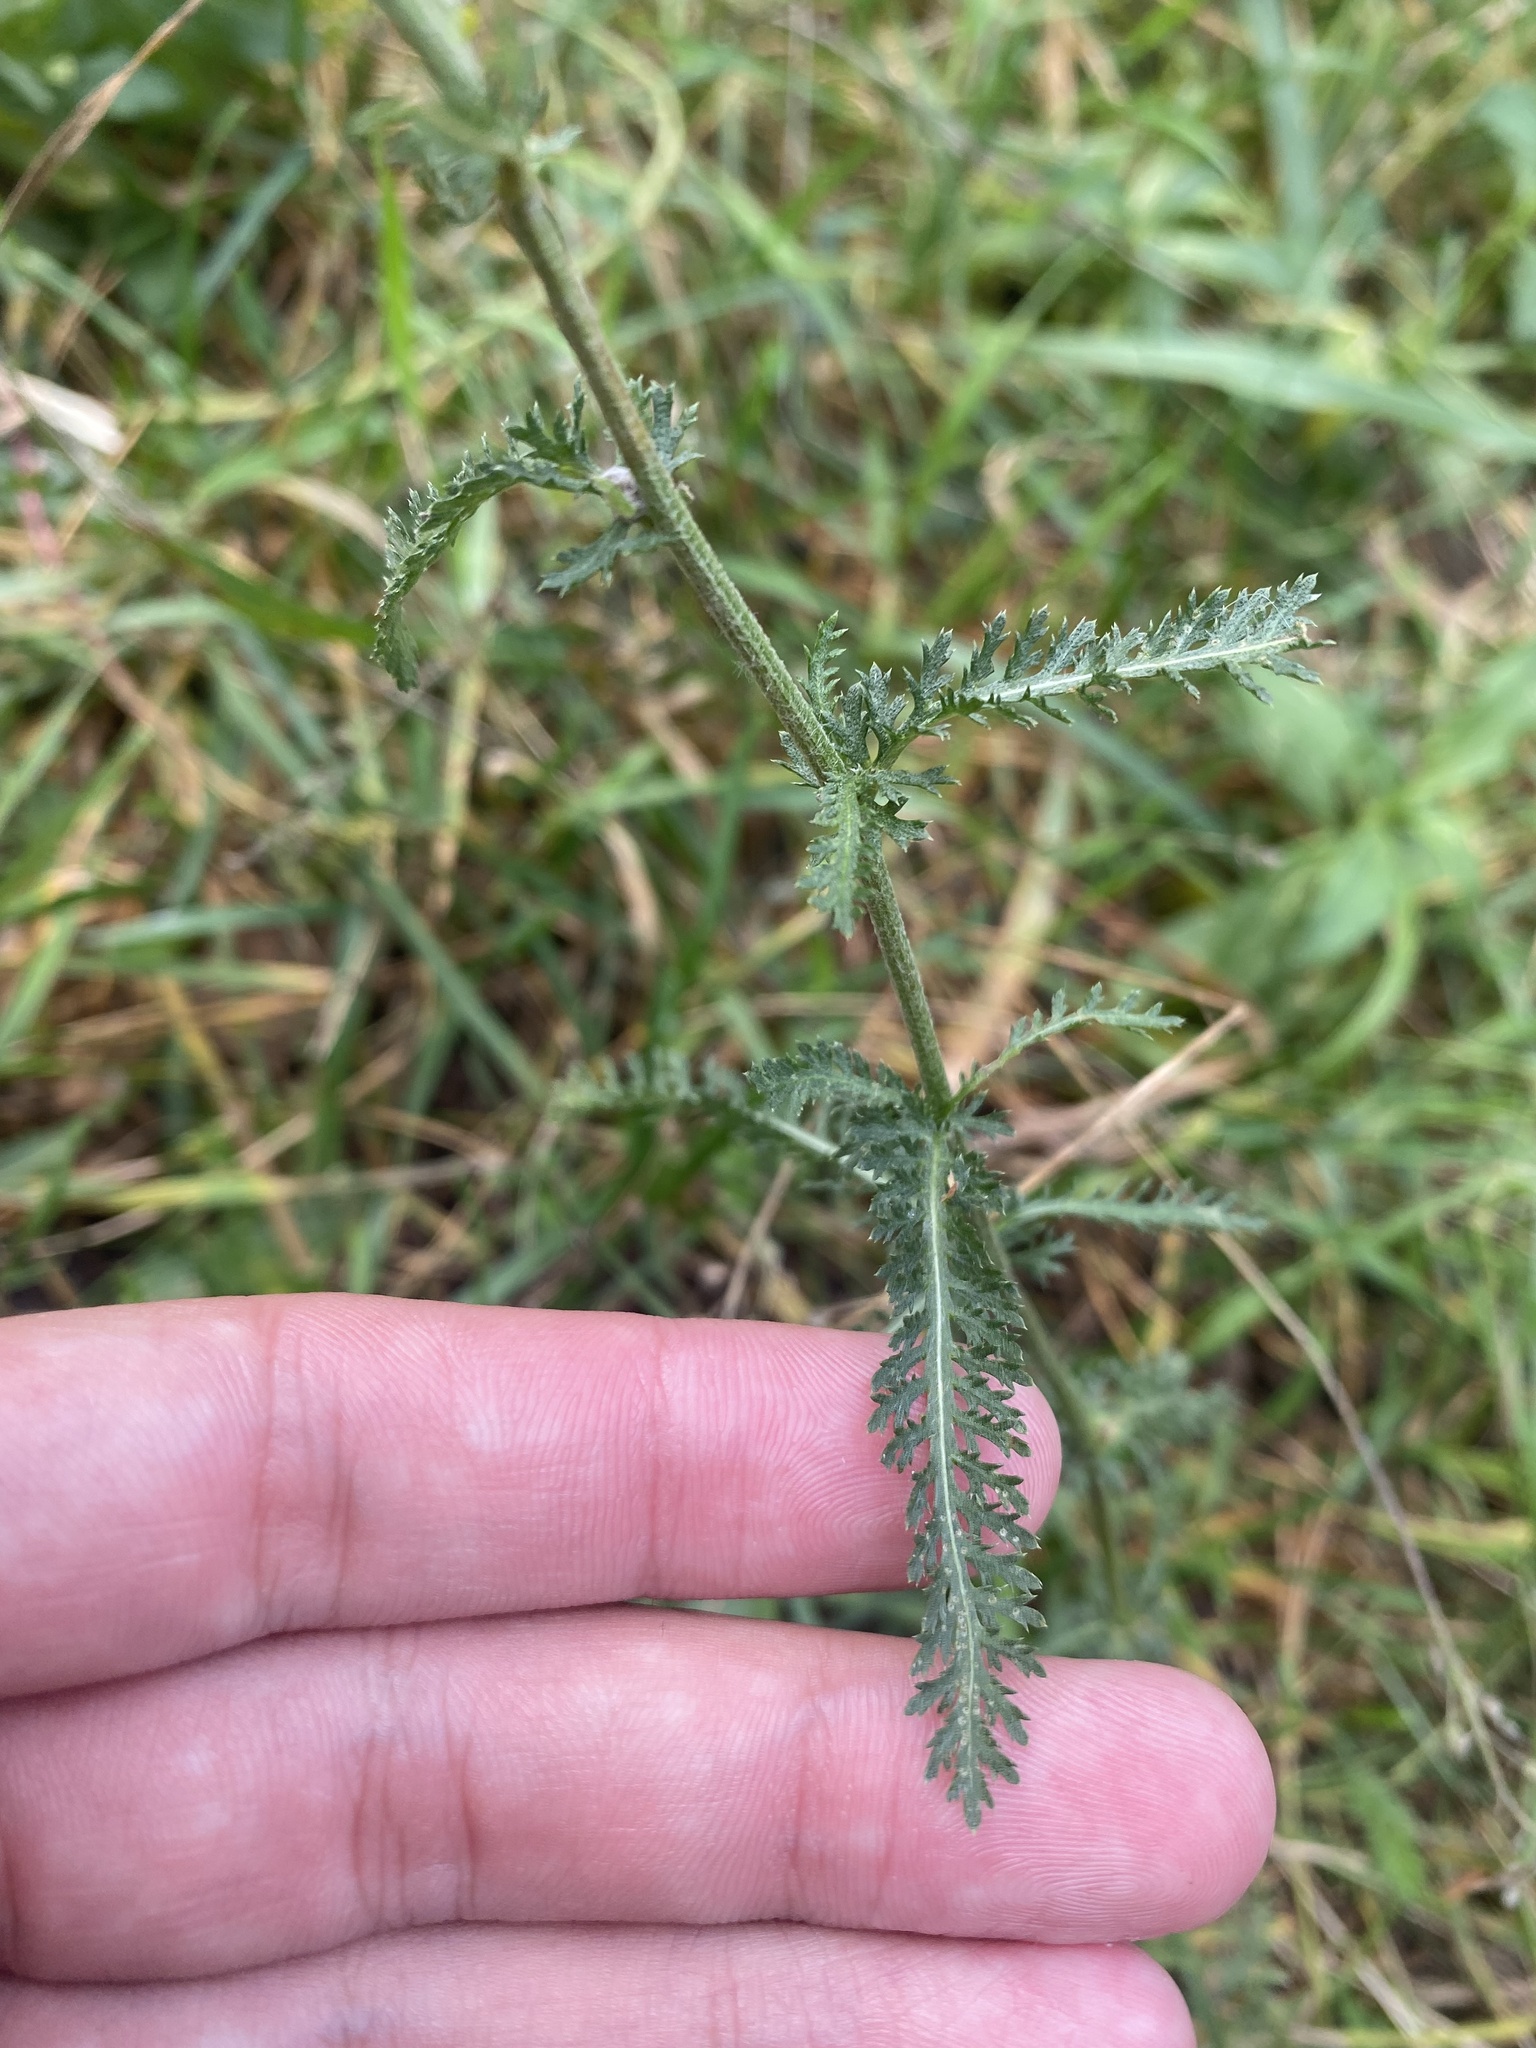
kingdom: Plantae
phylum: Tracheophyta
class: Magnoliopsida
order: Asterales
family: Asteraceae
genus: Achillea
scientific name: Achillea millefolium
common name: Yarrow
